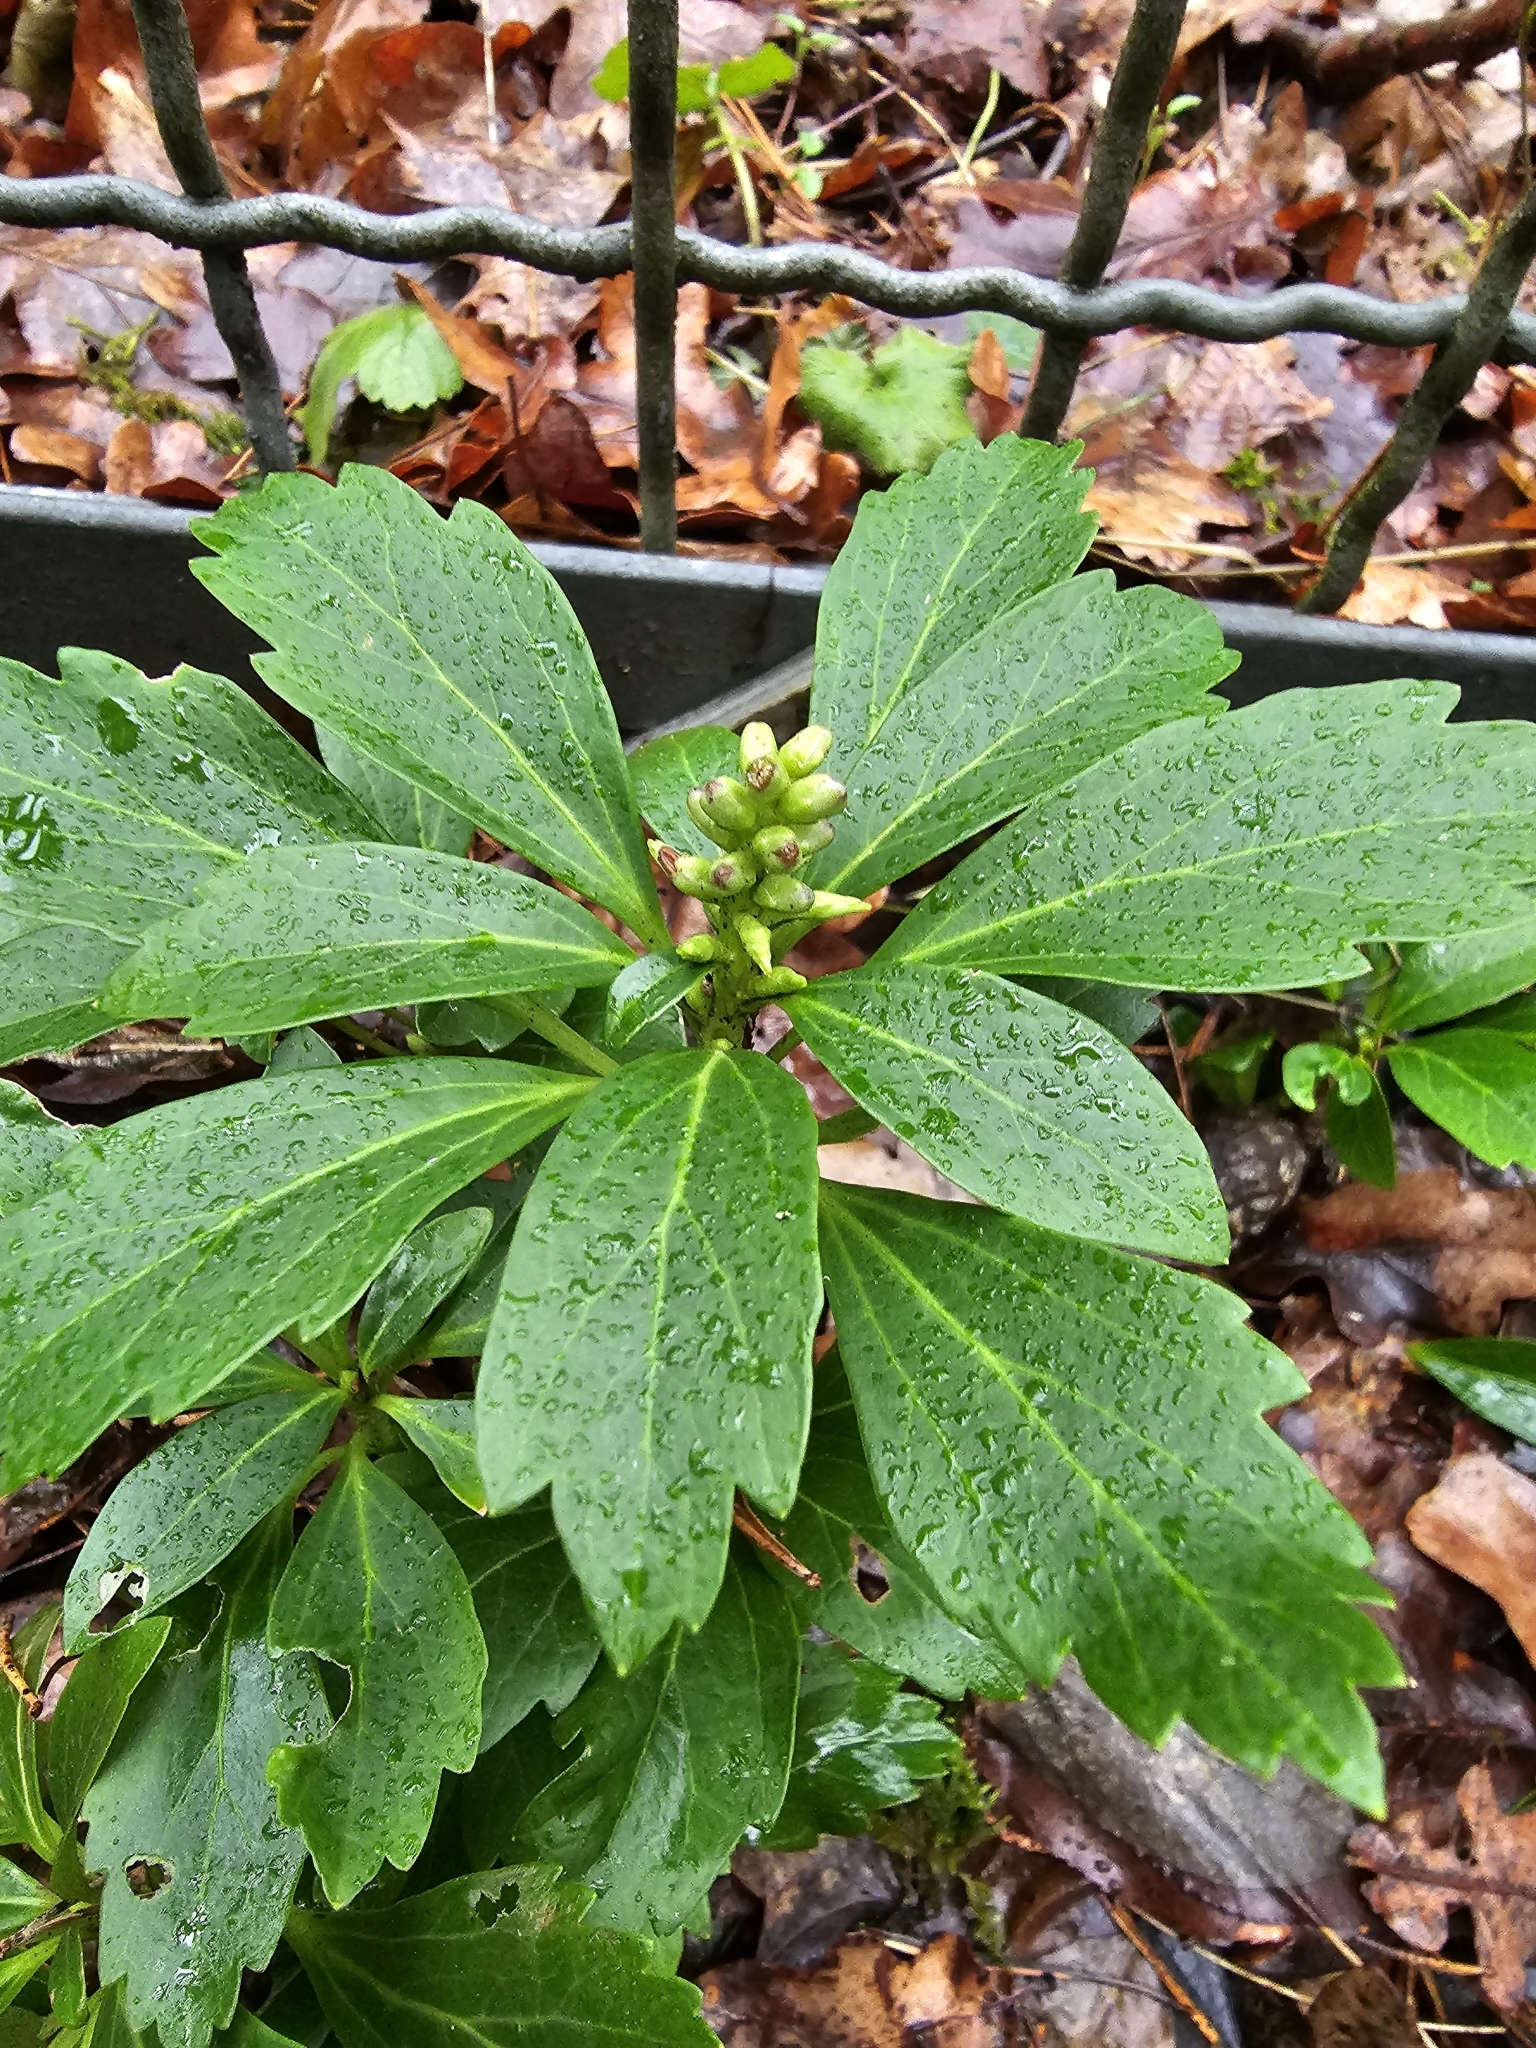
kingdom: Plantae
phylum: Tracheophyta
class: Magnoliopsida
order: Buxales
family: Buxaceae
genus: Pachysandra
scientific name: Pachysandra terminalis
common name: Japanese pachysandra
